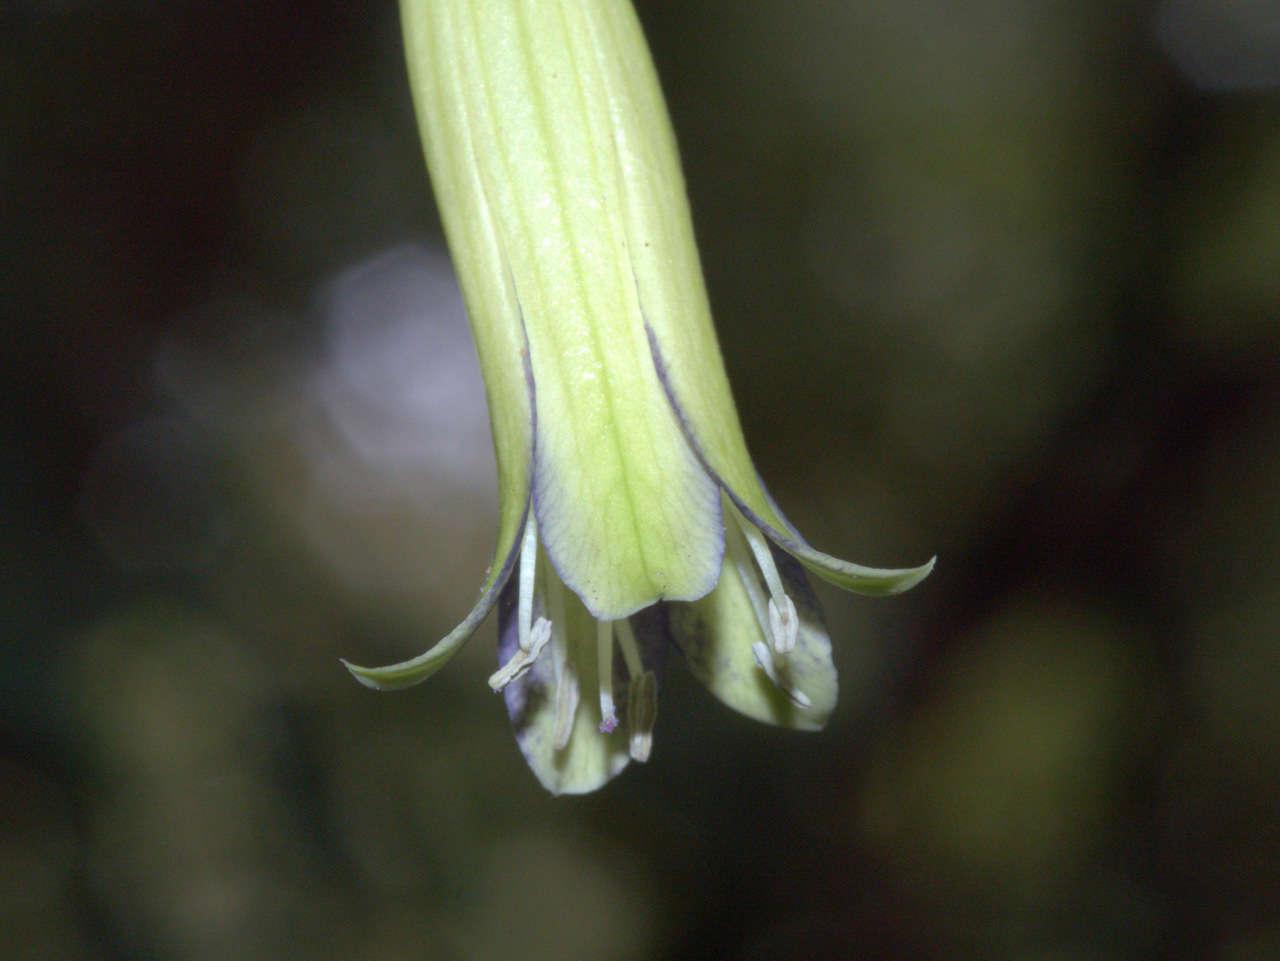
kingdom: Plantae
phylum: Tracheophyta
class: Magnoliopsida
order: Apiales
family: Pittosporaceae
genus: Billardiera
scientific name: Billardiera macrantha
